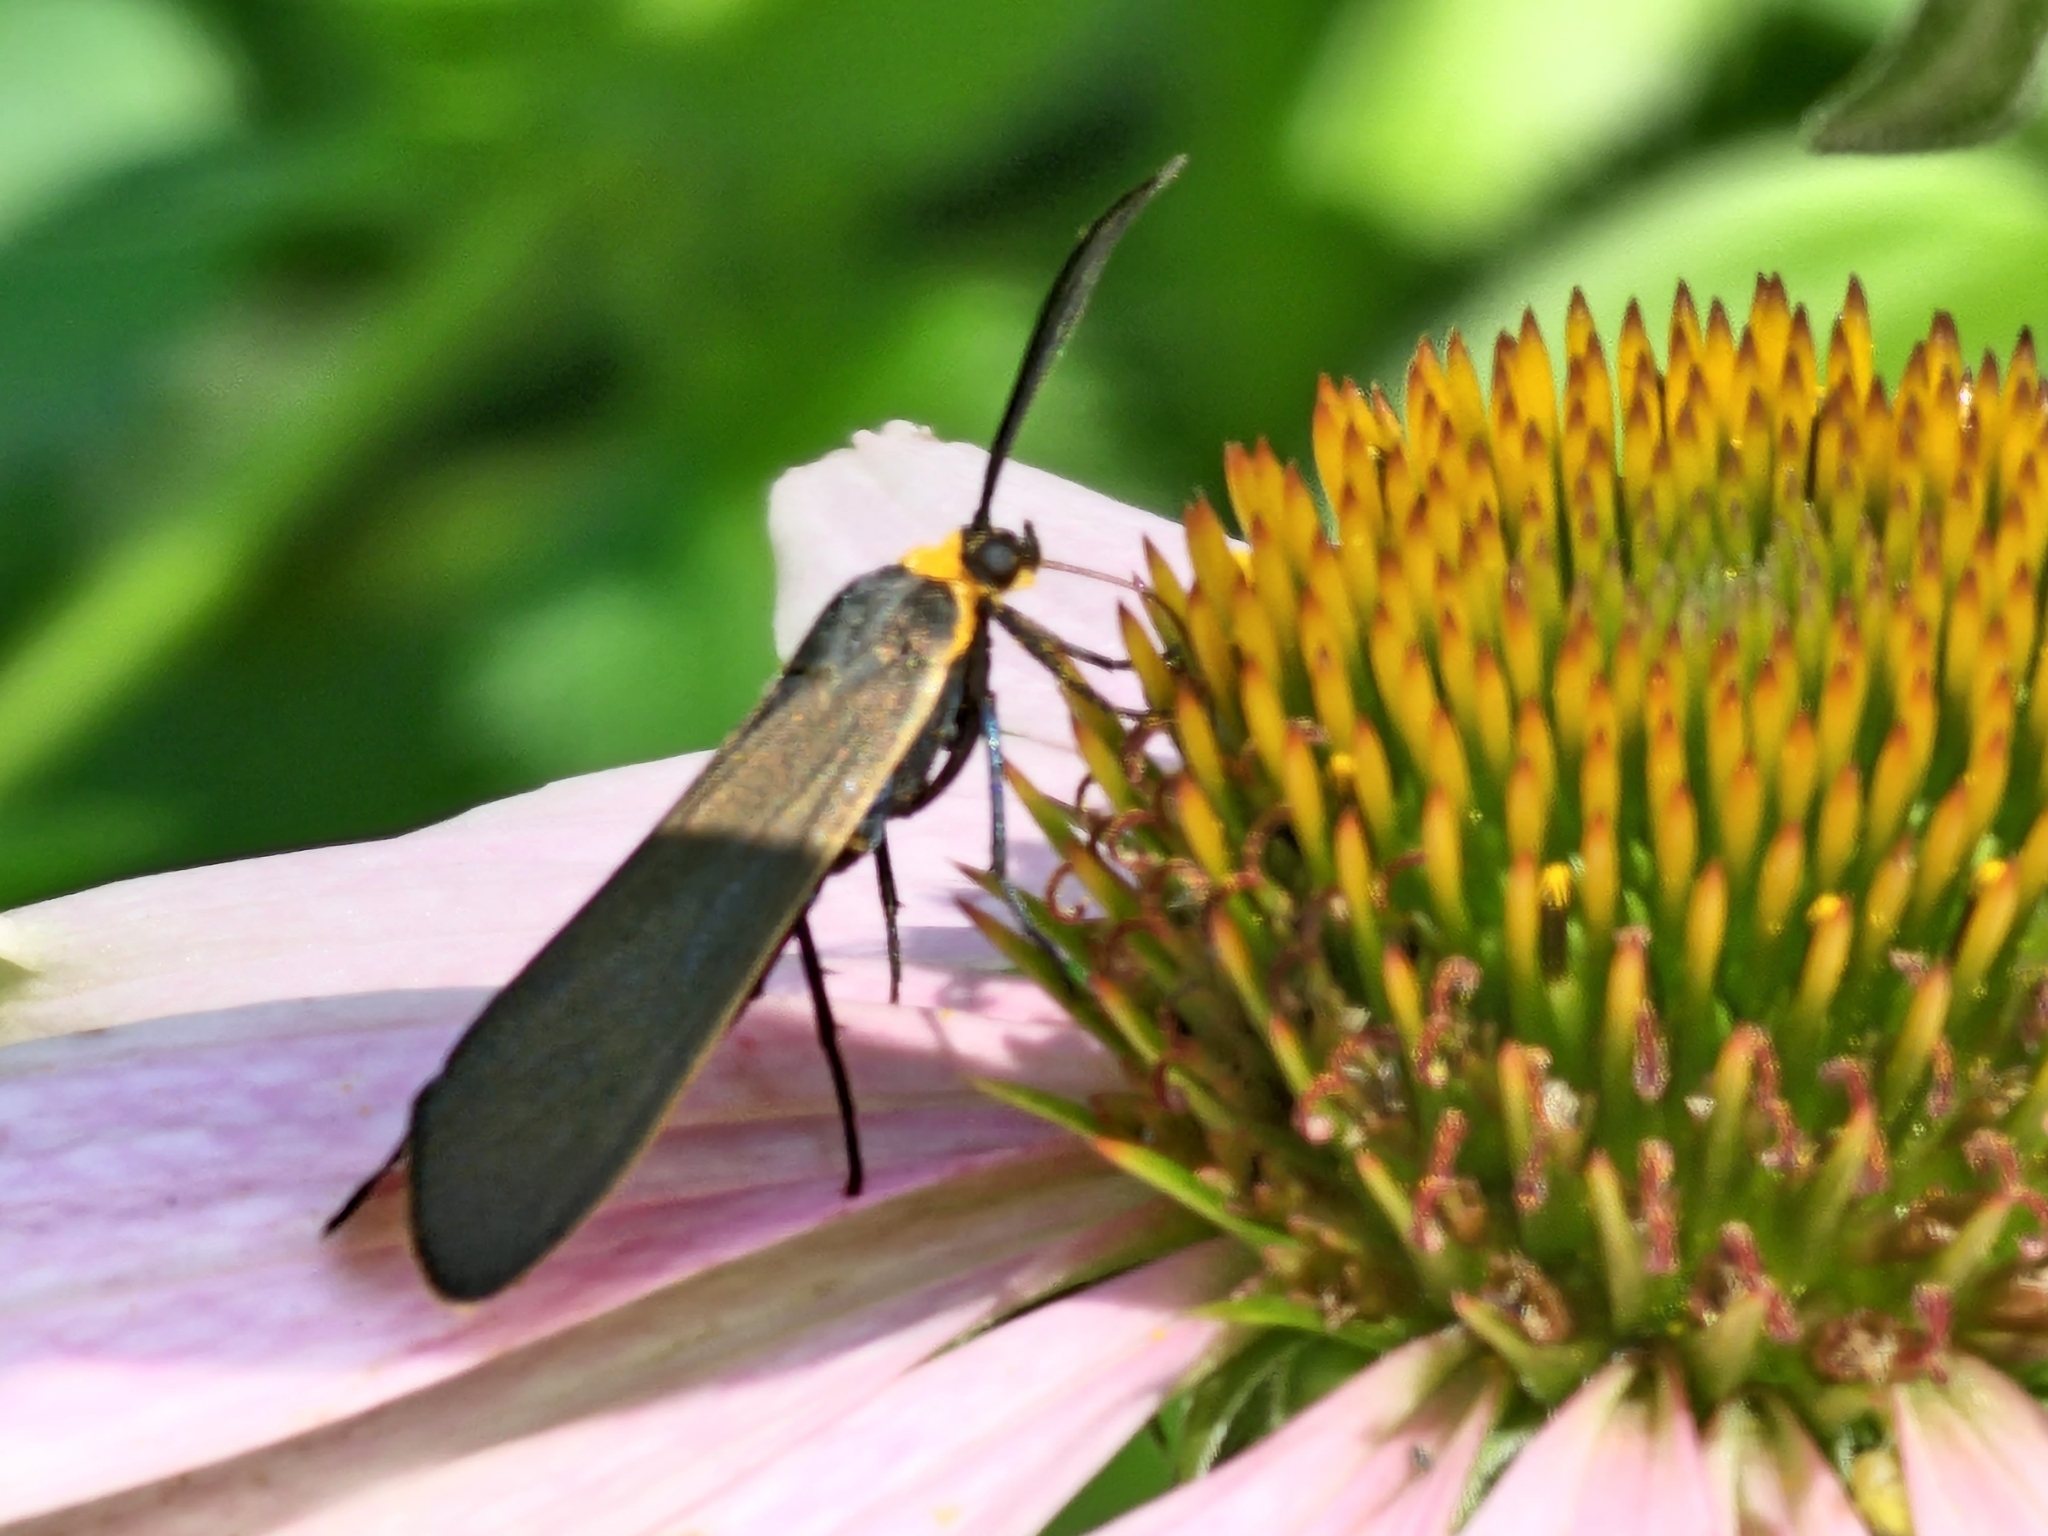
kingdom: Animalia
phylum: Arthropoda
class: Insecta
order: Lepidoptera
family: Erebidae
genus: Cisseps
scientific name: Cisseps fulvicollis
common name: Yellow-collared scape moth
